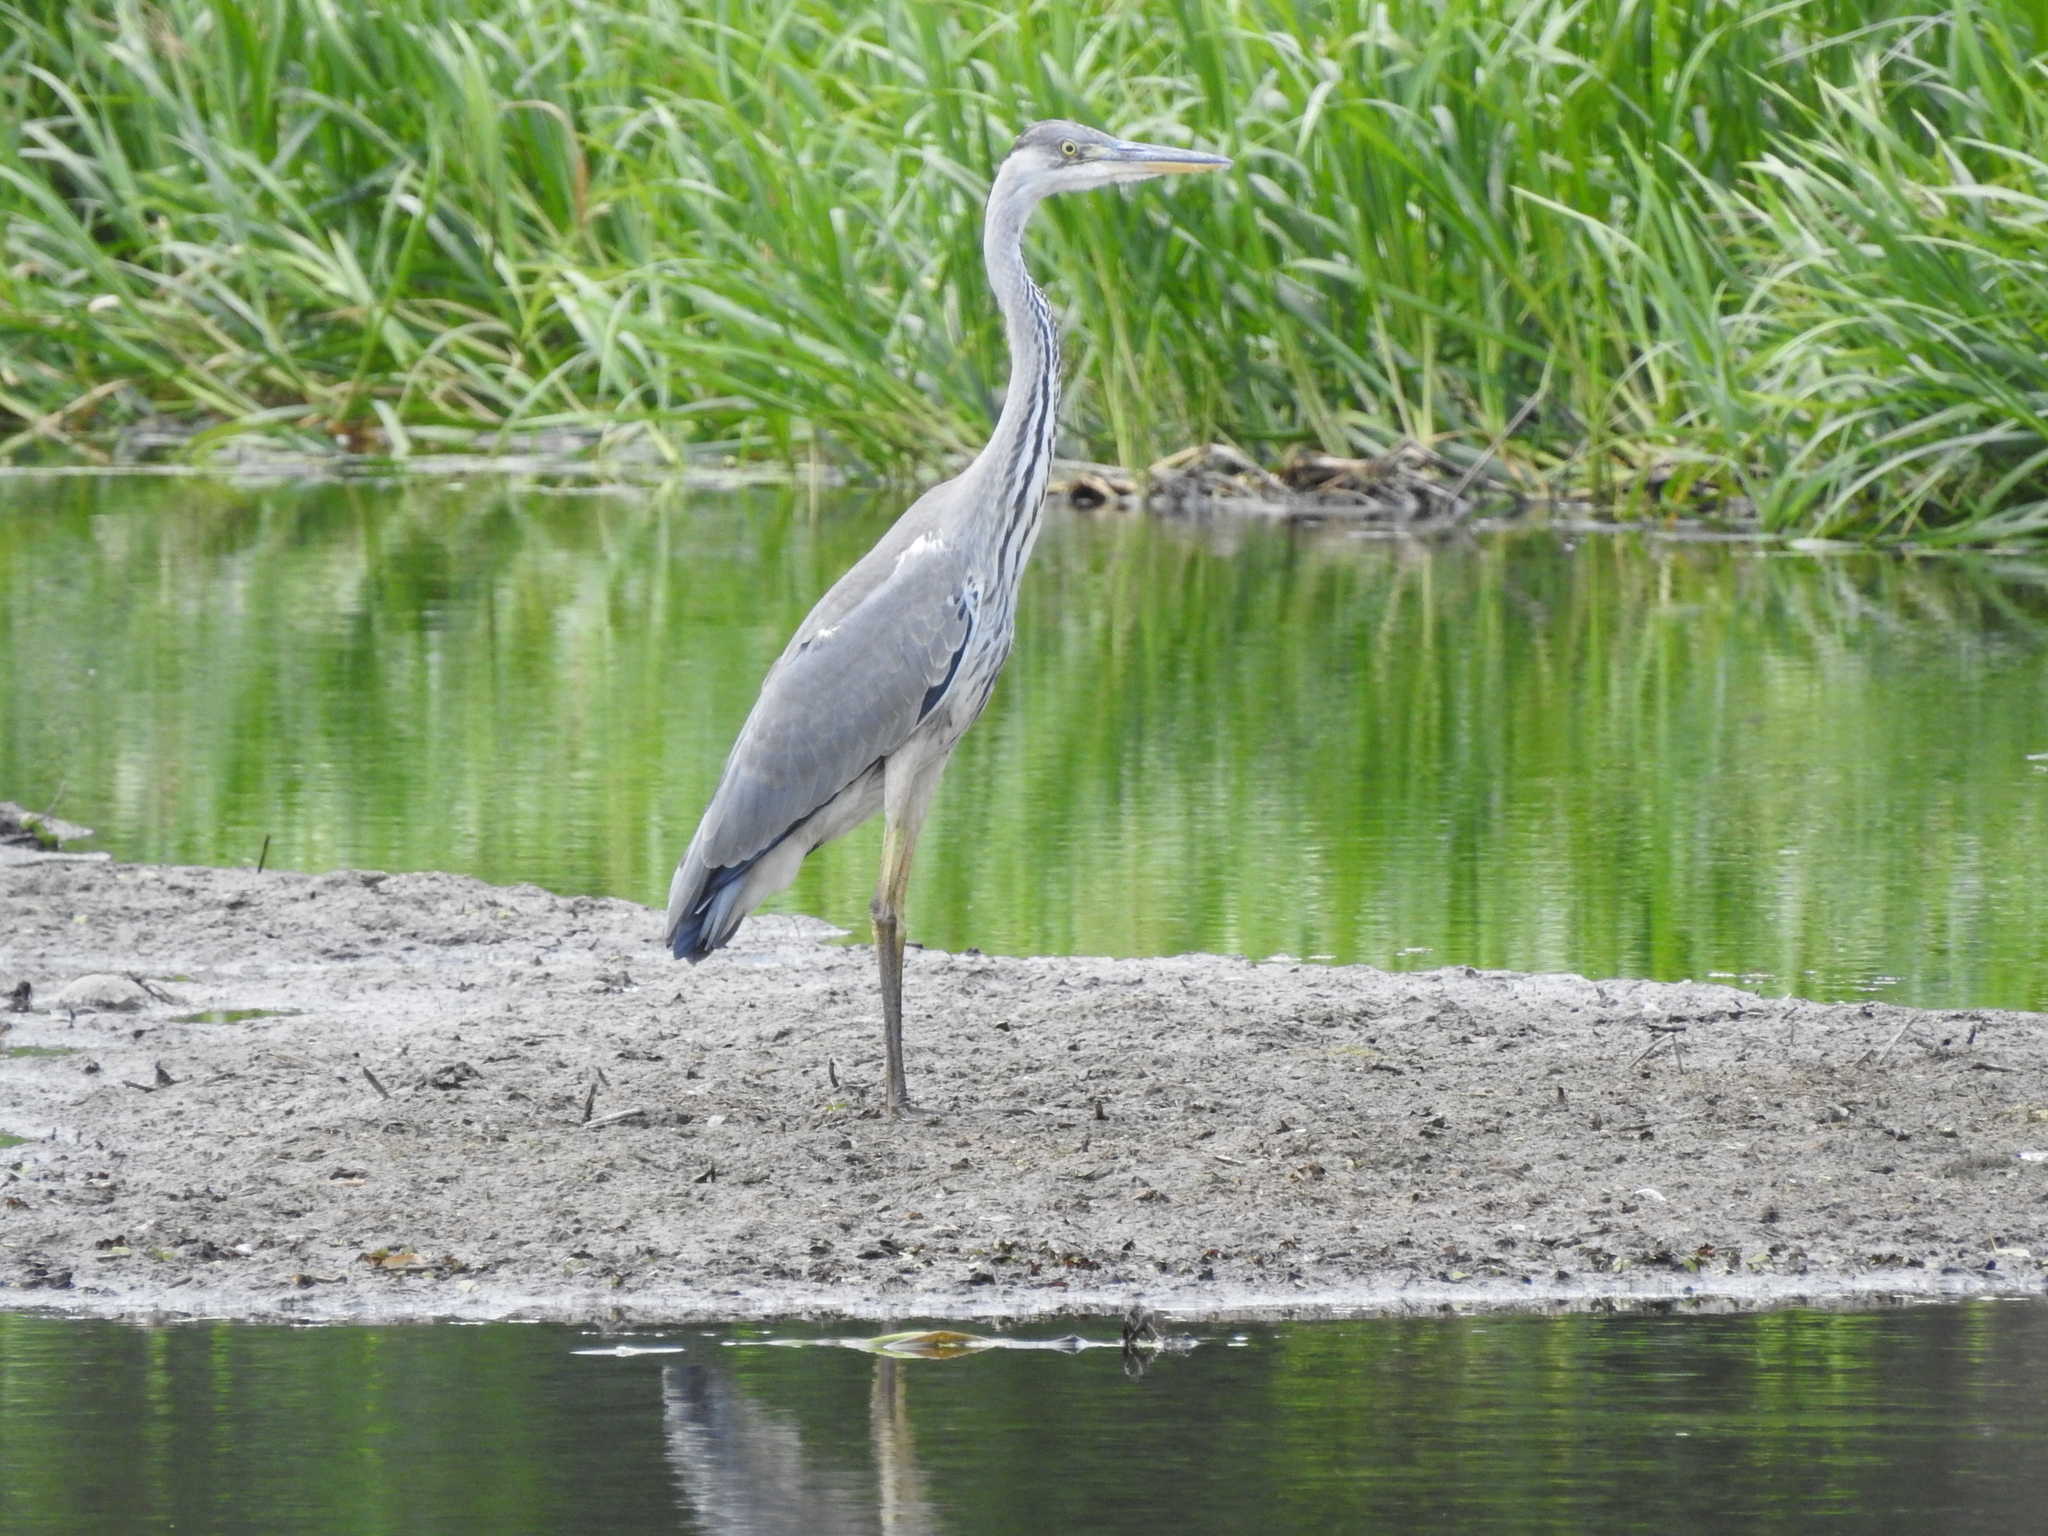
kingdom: Animalia
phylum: Chordata
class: Aves
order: Pelecaniformes
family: Ardeidae
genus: Ardea
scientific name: Ardea cinerea
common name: Grey heron
